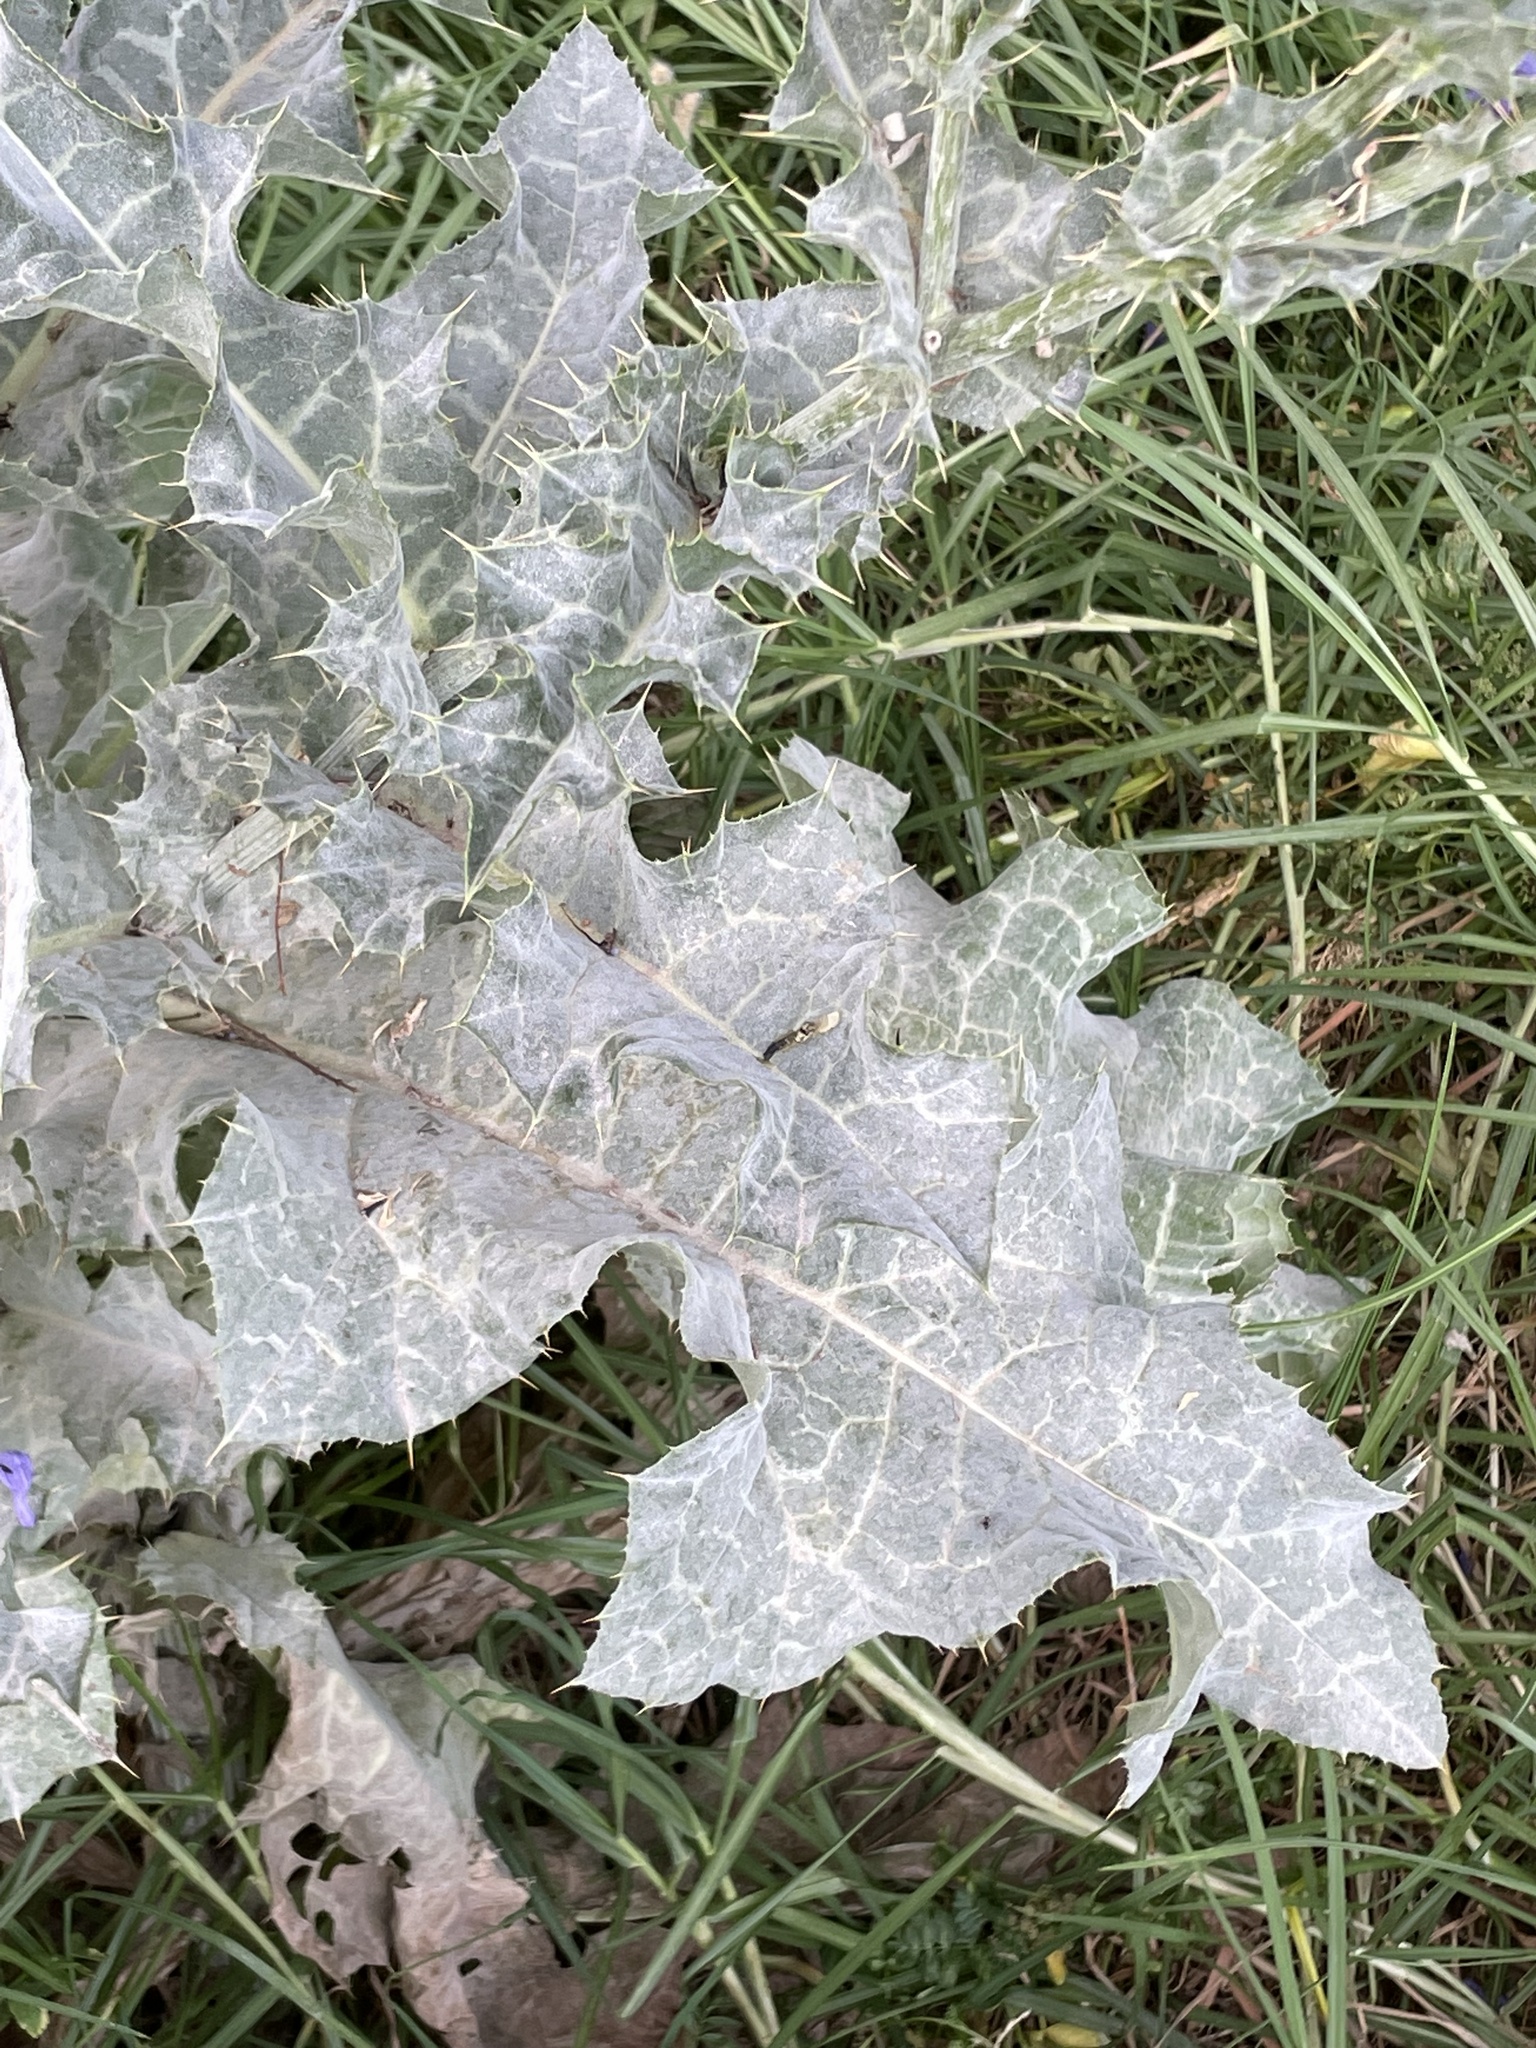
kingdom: Plantae
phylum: Tracheophyta
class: Magnoliopsida
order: Asterales
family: Asteraceae
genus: Silybum
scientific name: Silybum marianum
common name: Milk thistle
